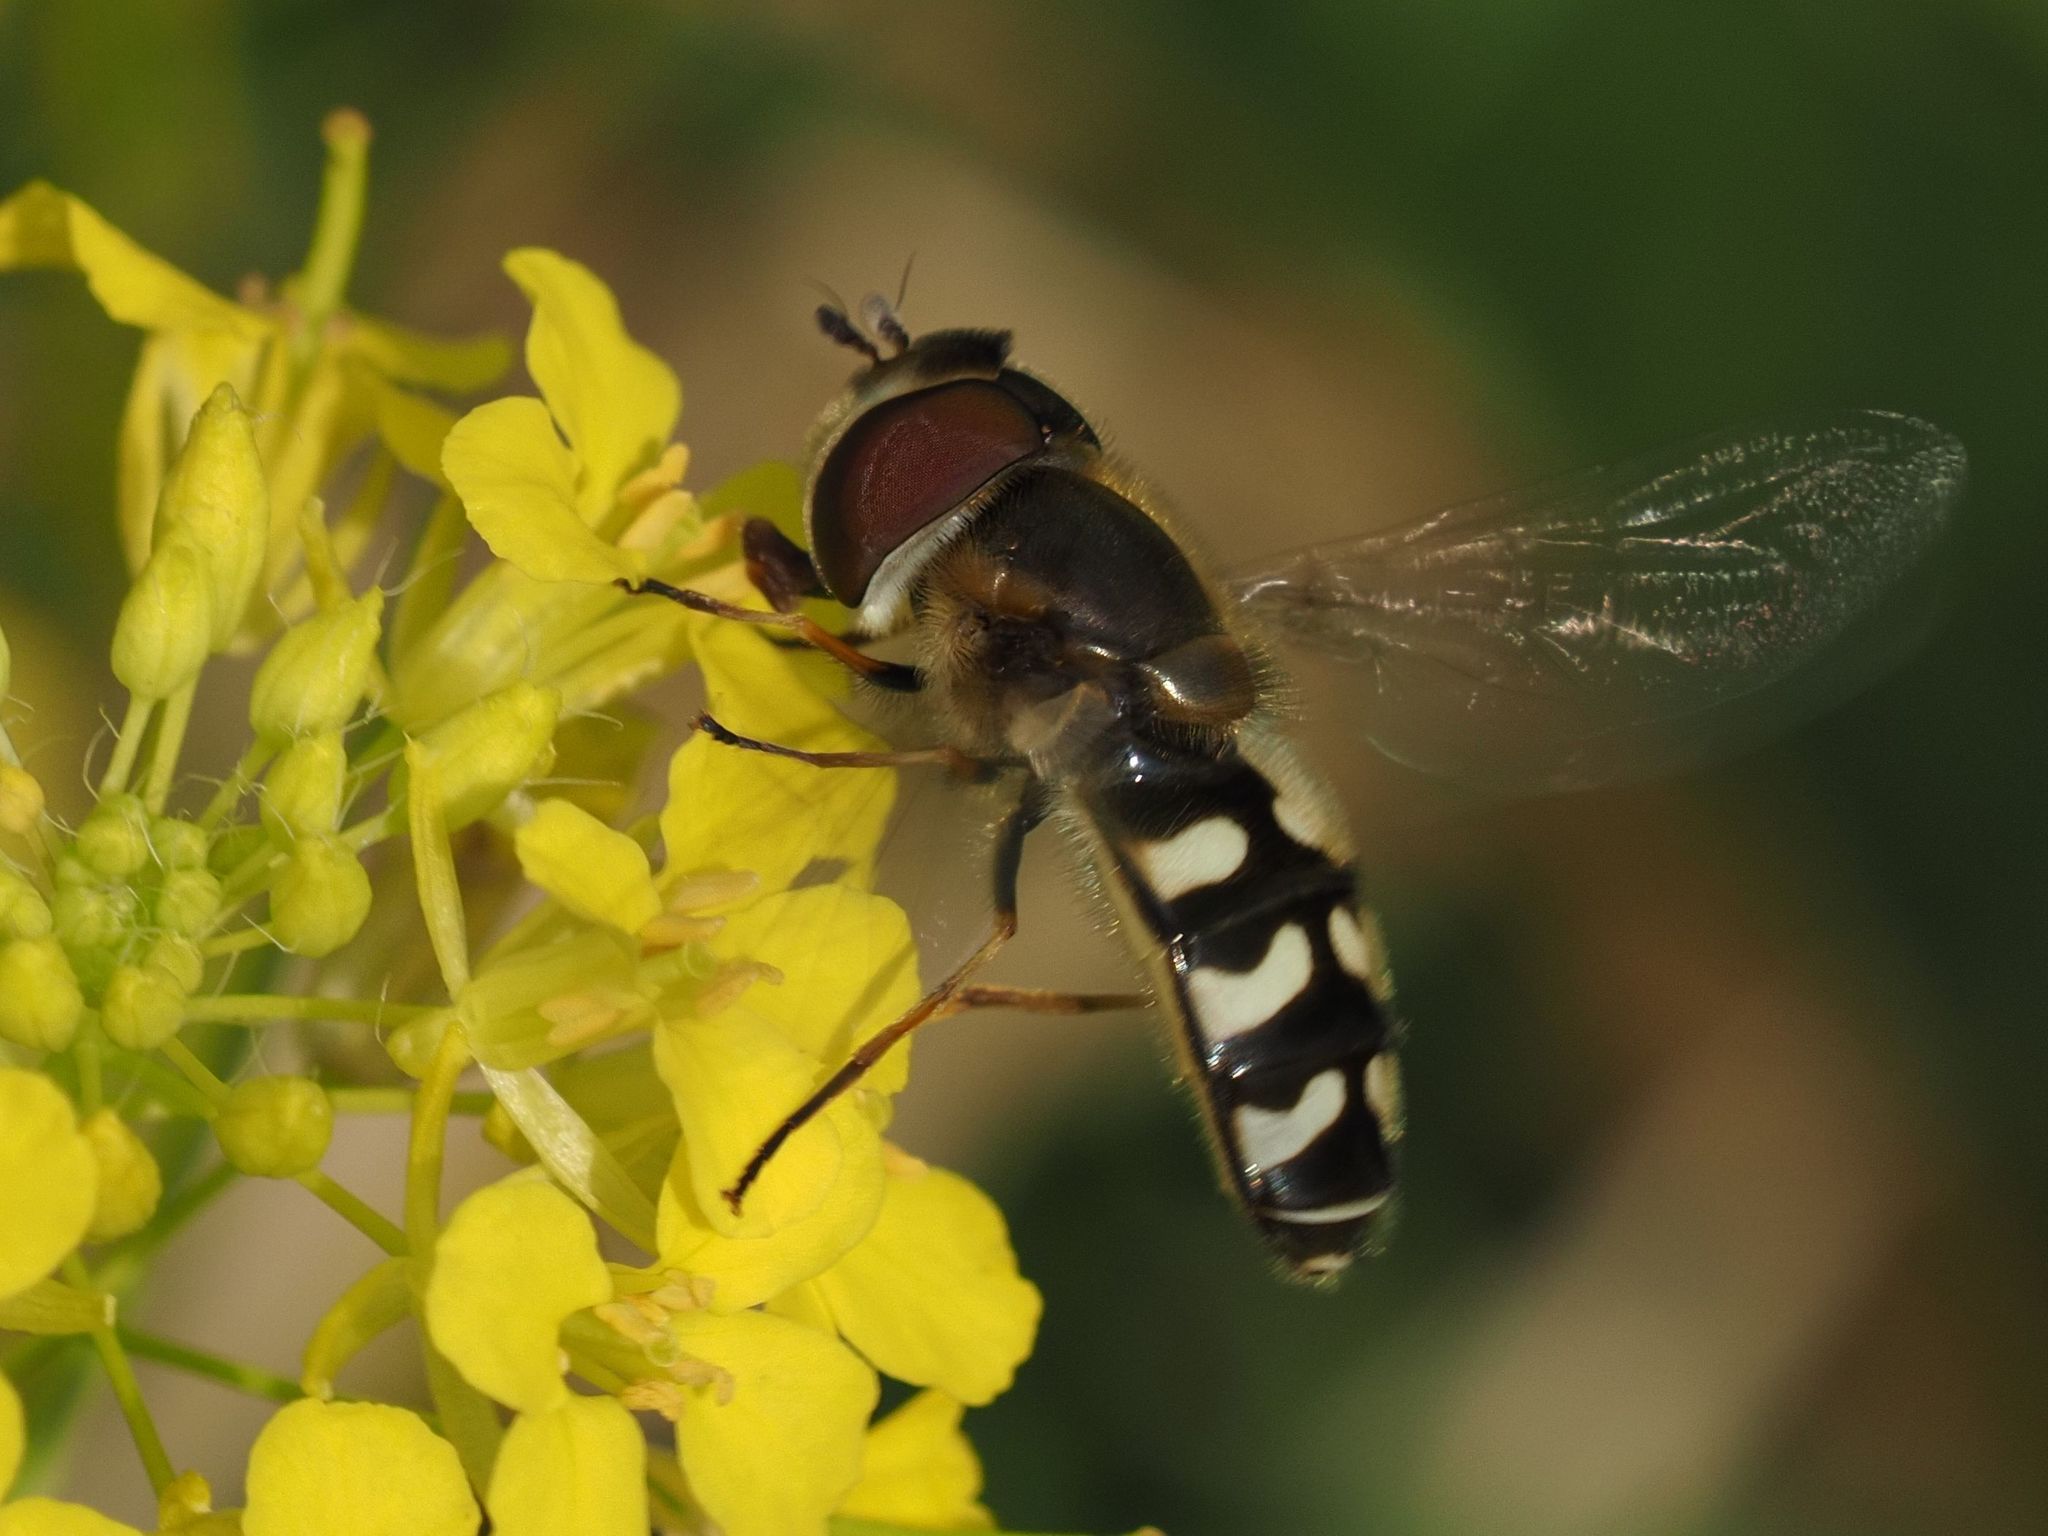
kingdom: Animalia
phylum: Arthropoda
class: Insecta
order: Diptera
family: Syrphidae
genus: Scaeva
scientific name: Scaeva pyrastri
